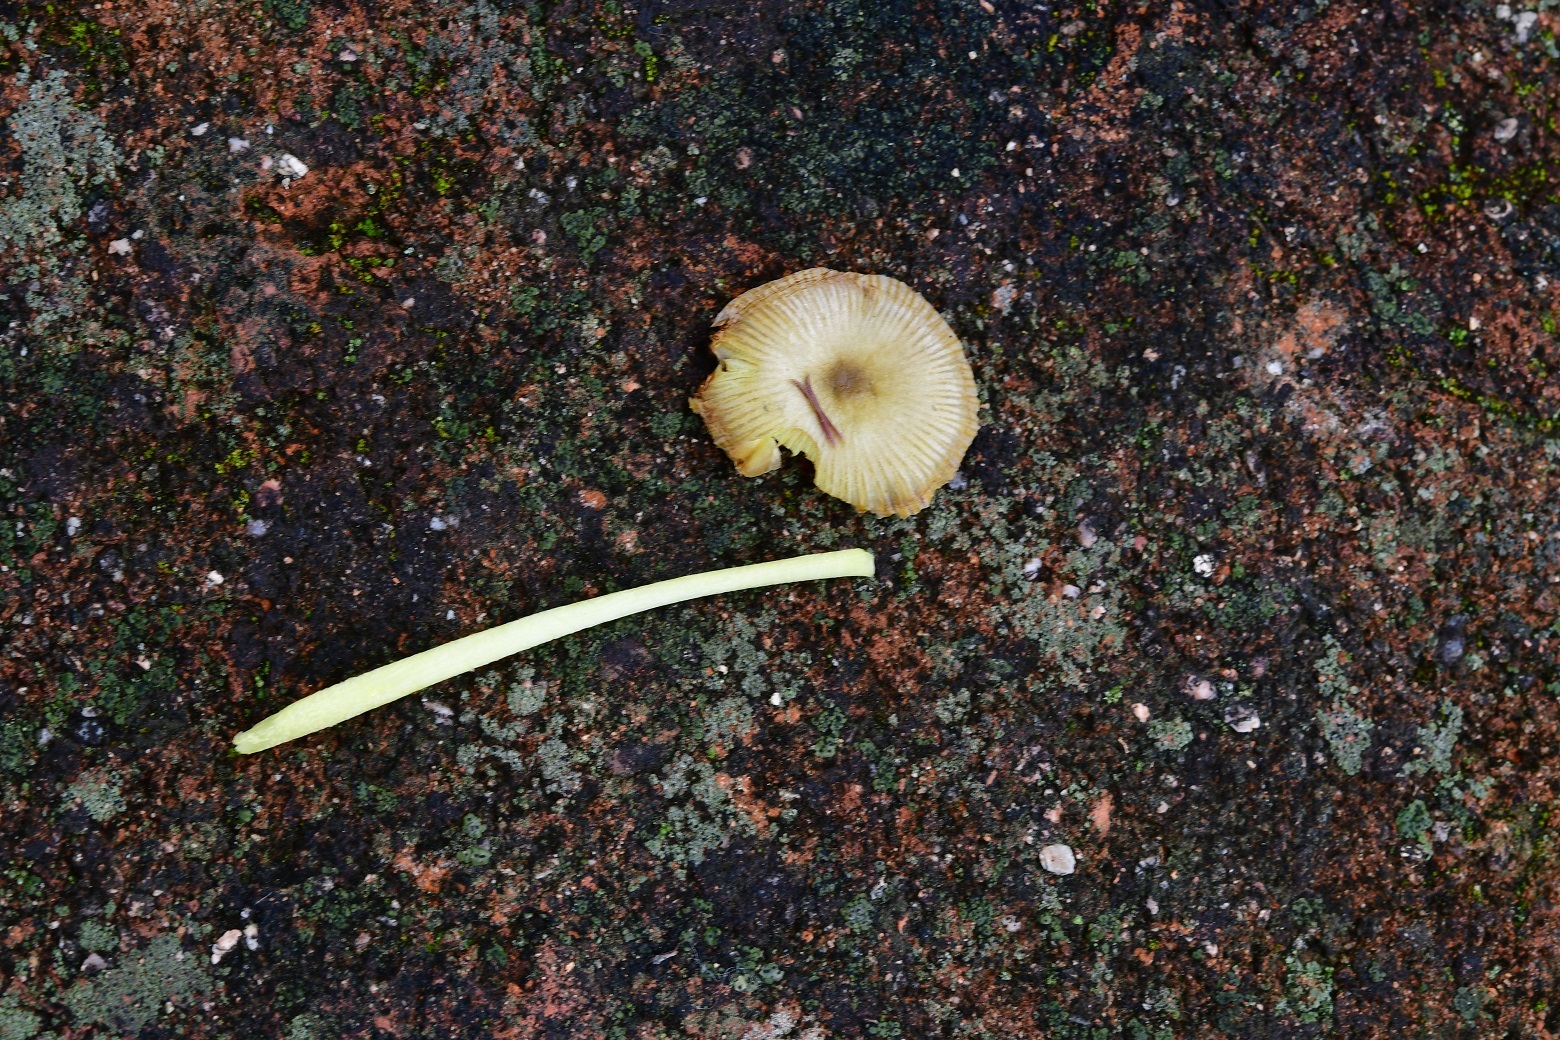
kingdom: Fungi
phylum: Basidiomycota
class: Agaricomycetes
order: Agaricales
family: Bolbitiaceae
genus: Bolbitius
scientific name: Bolbitius titubans
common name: Yellow fieldcap
